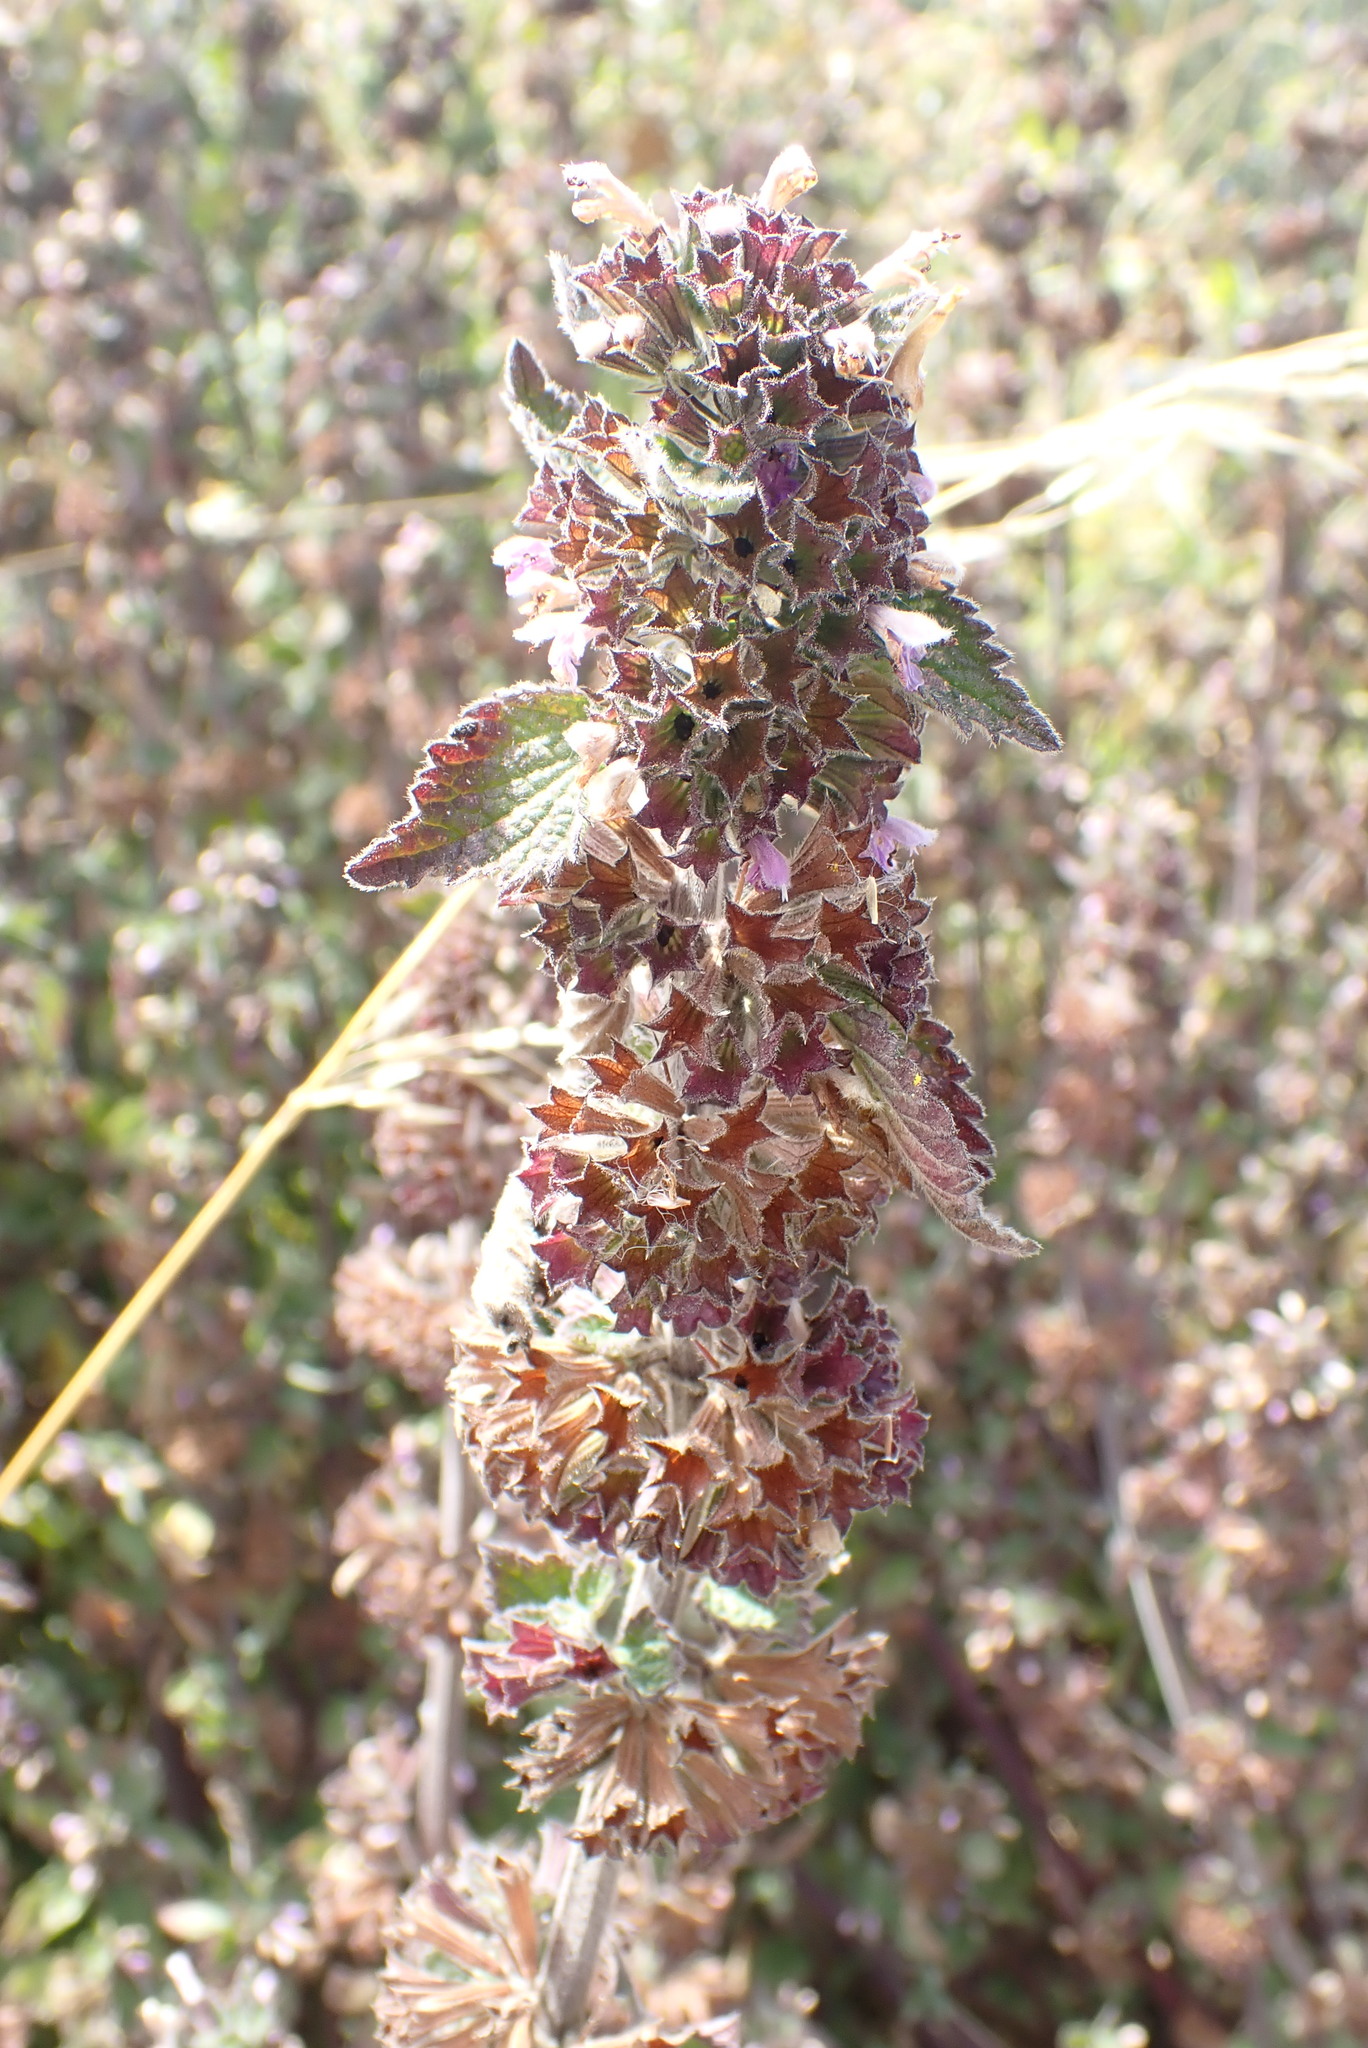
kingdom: Plantae
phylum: Tracheophyta
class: Magnoliopsida
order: Lamiales
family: Lamiaceae
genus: Ballota
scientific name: Ballota nigra
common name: Black horehound
